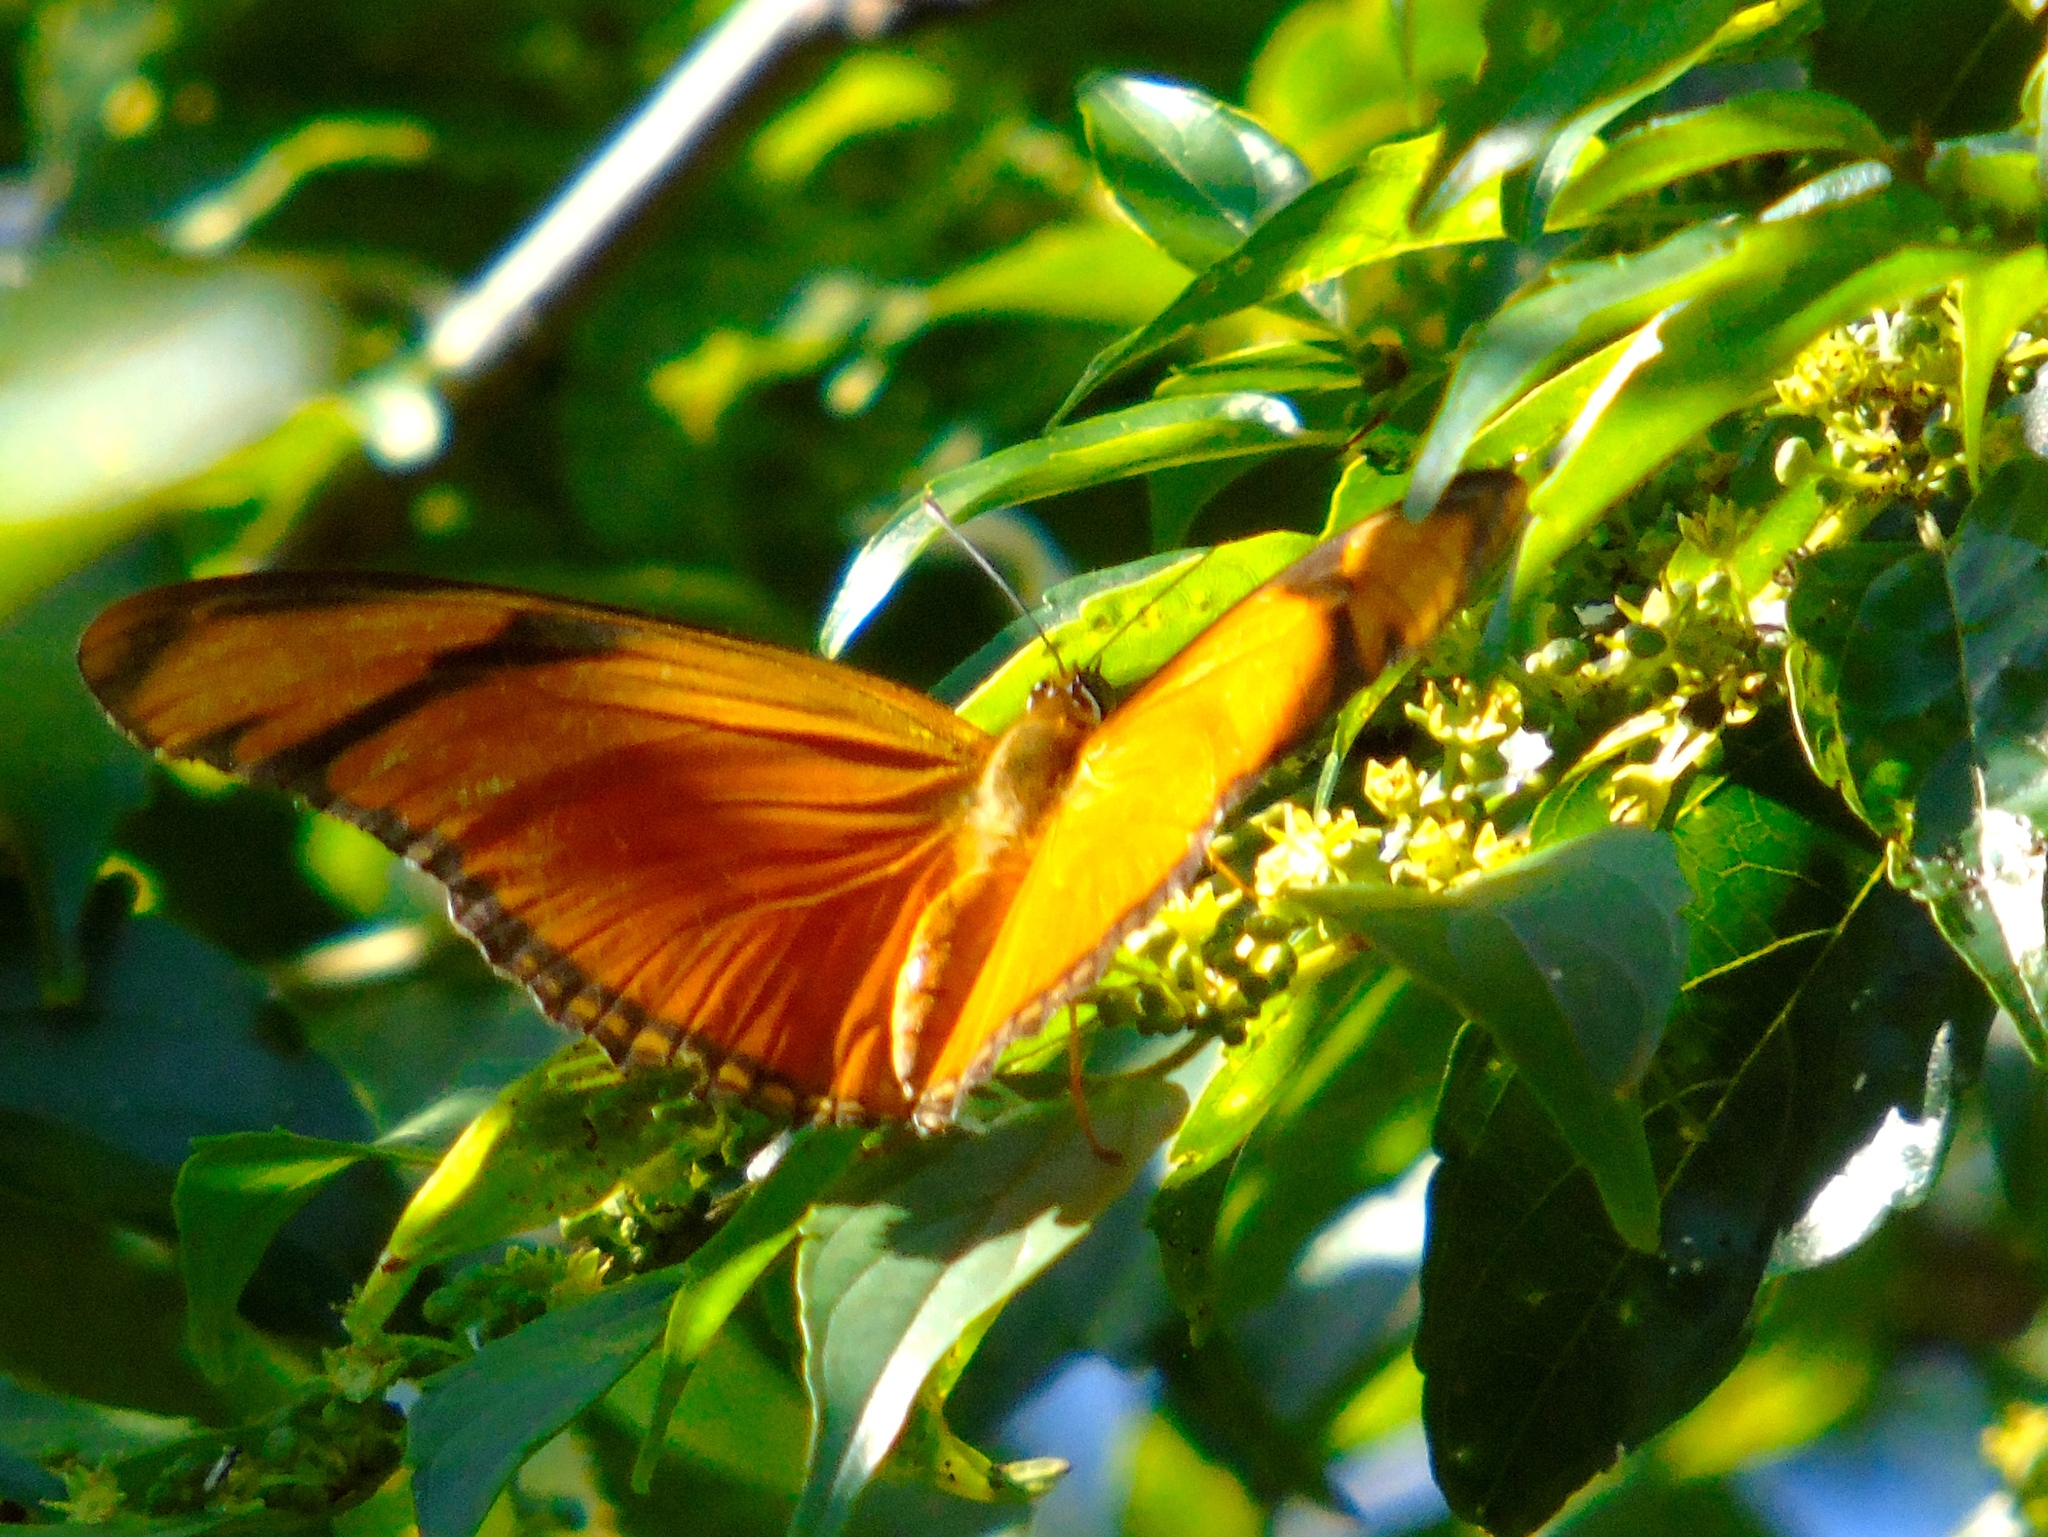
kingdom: Animalia
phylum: Arthropoda
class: Insecta
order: Lepidoptera
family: Nymphalidae
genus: Dryas
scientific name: Dryas iulia
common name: Flambeau
